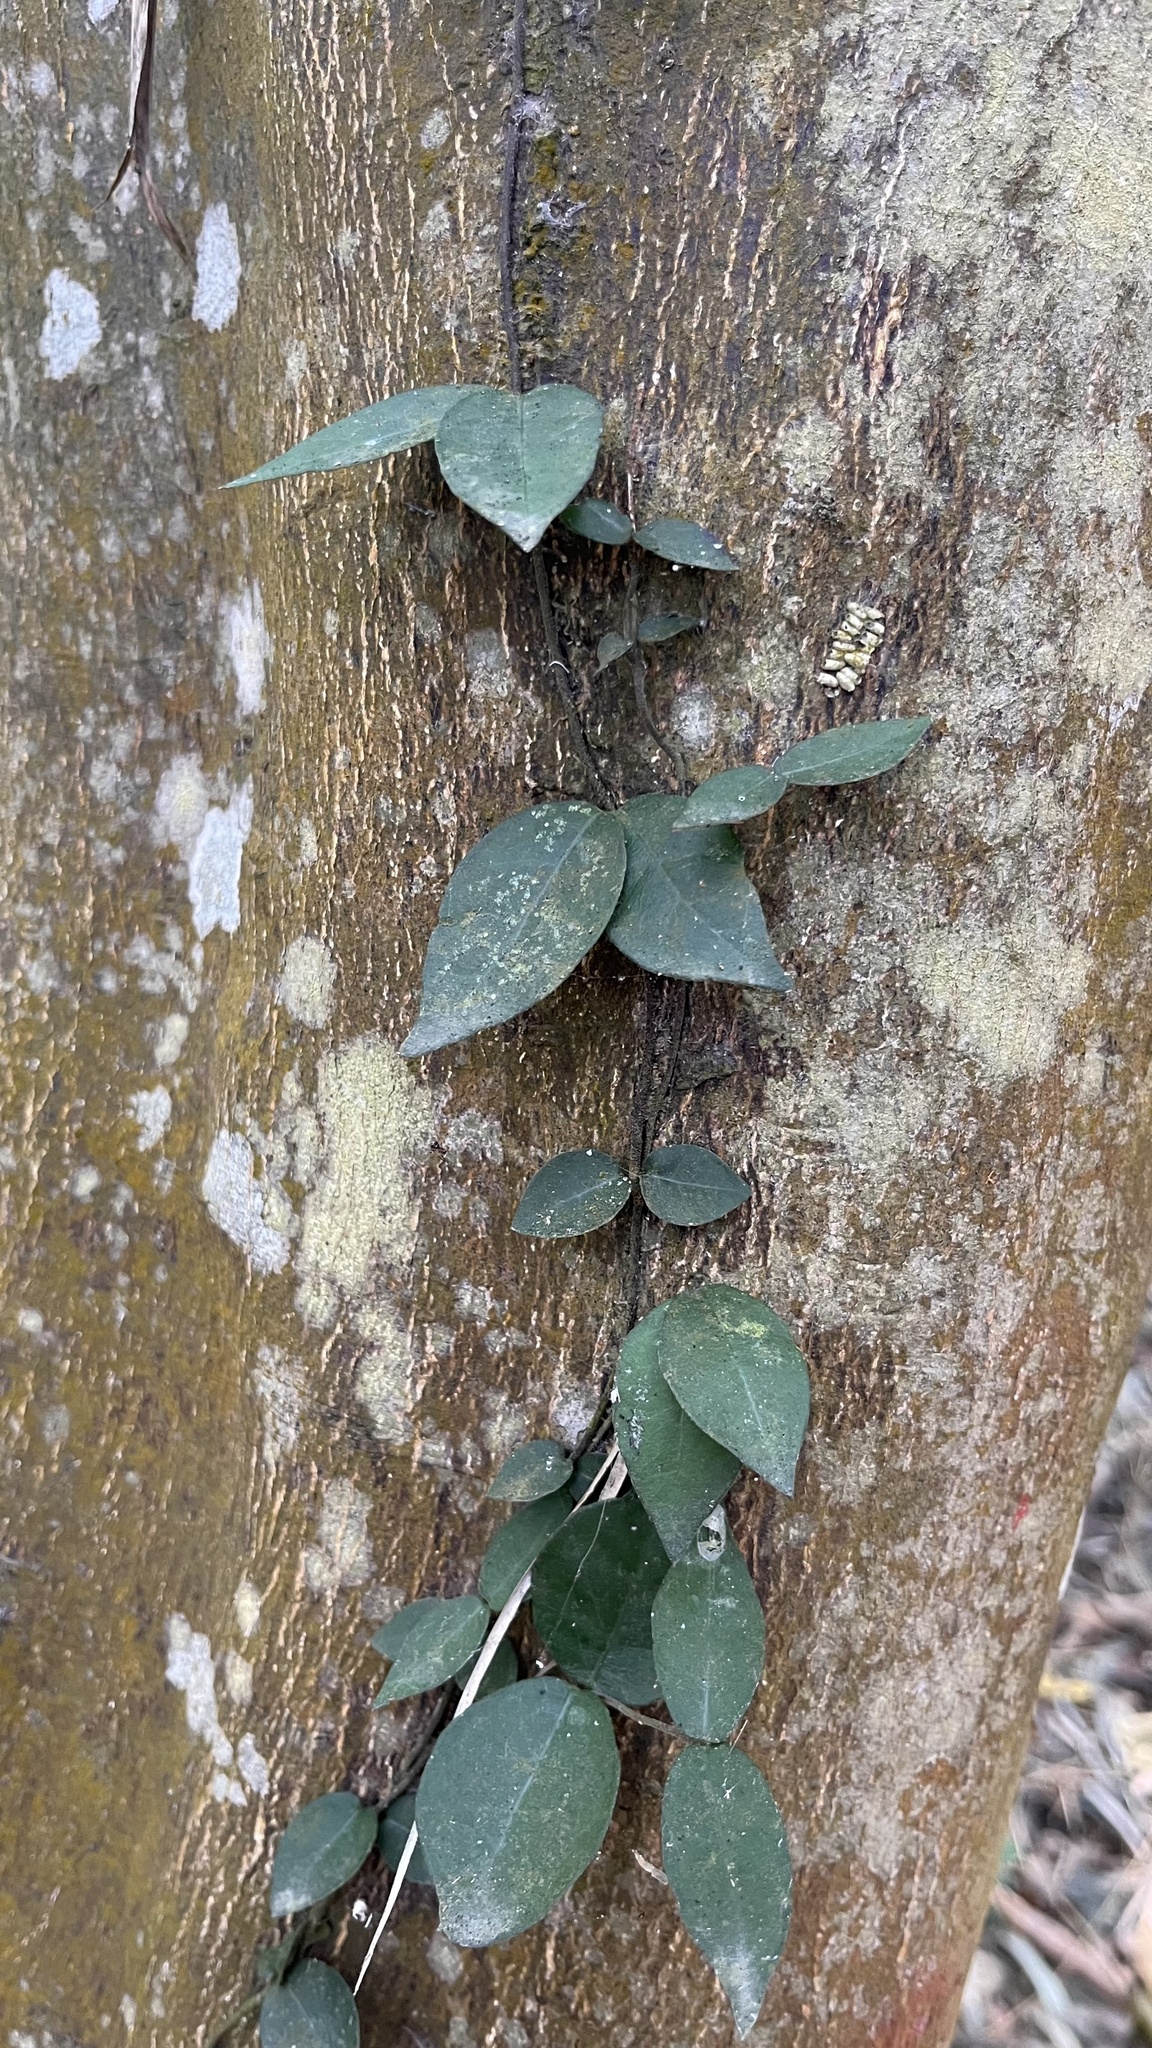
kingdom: Plantae
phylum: Tracheophyta
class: Magnoliopsida
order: Piperales
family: Piperaceae
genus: Piper
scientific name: Piper kadsura
